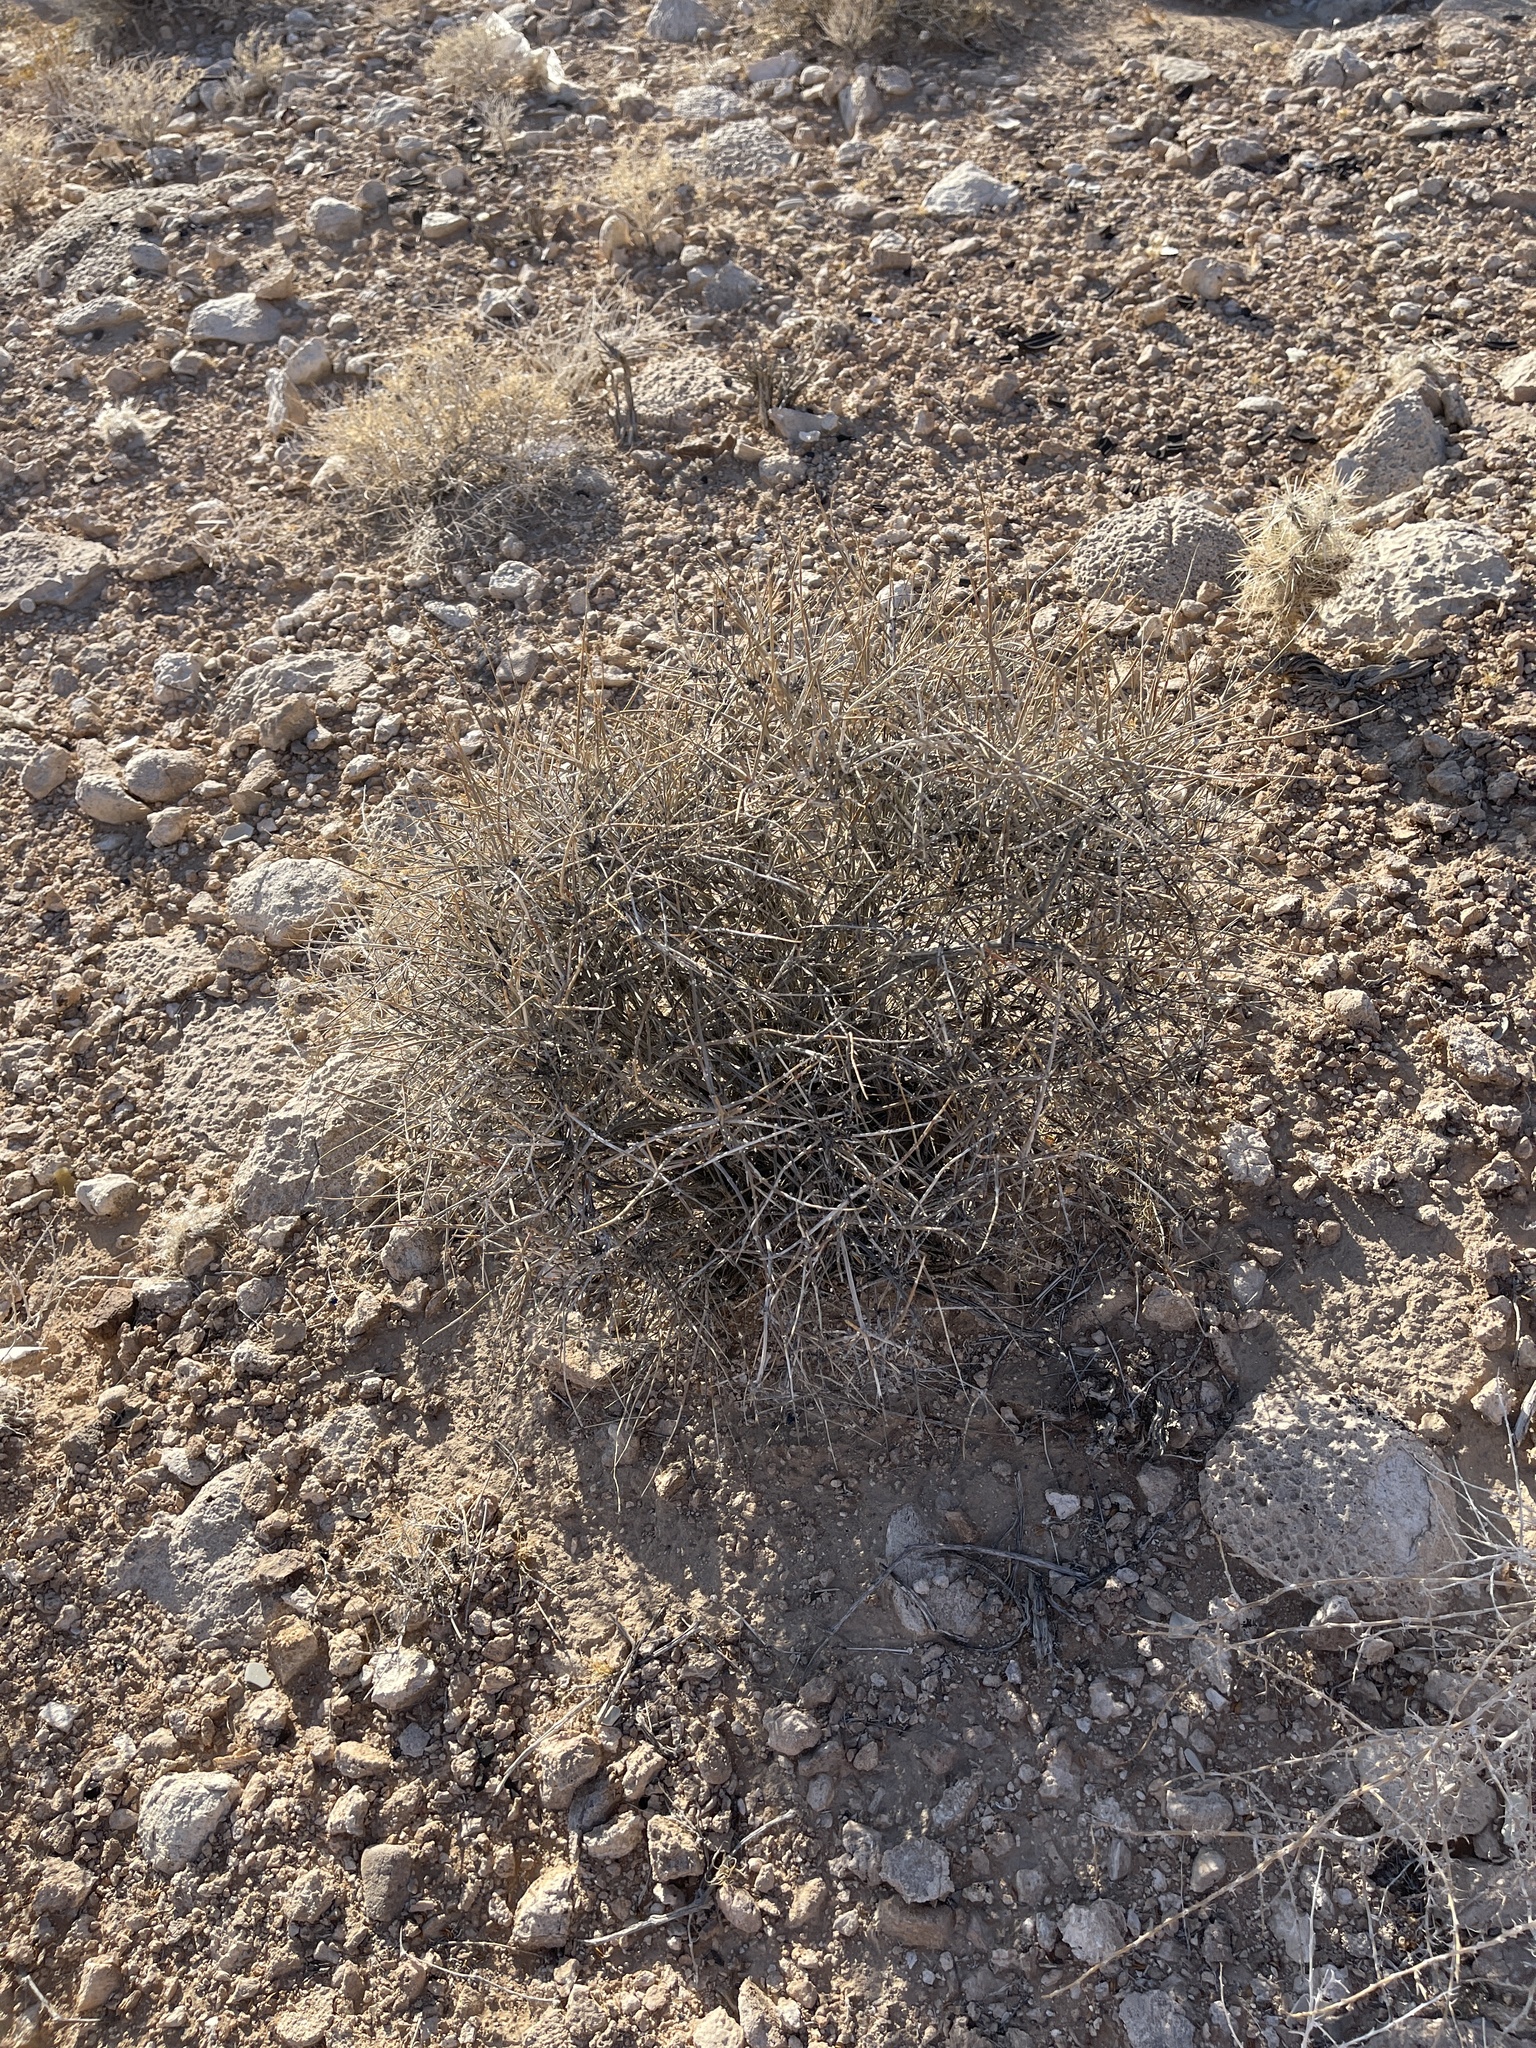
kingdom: Plantae
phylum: Tracheophyta
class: Gnetopsida
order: Ephedrales
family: Ephedraceae
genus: Ephedra
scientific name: Ephedra nevadensis
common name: Gray ephedra
